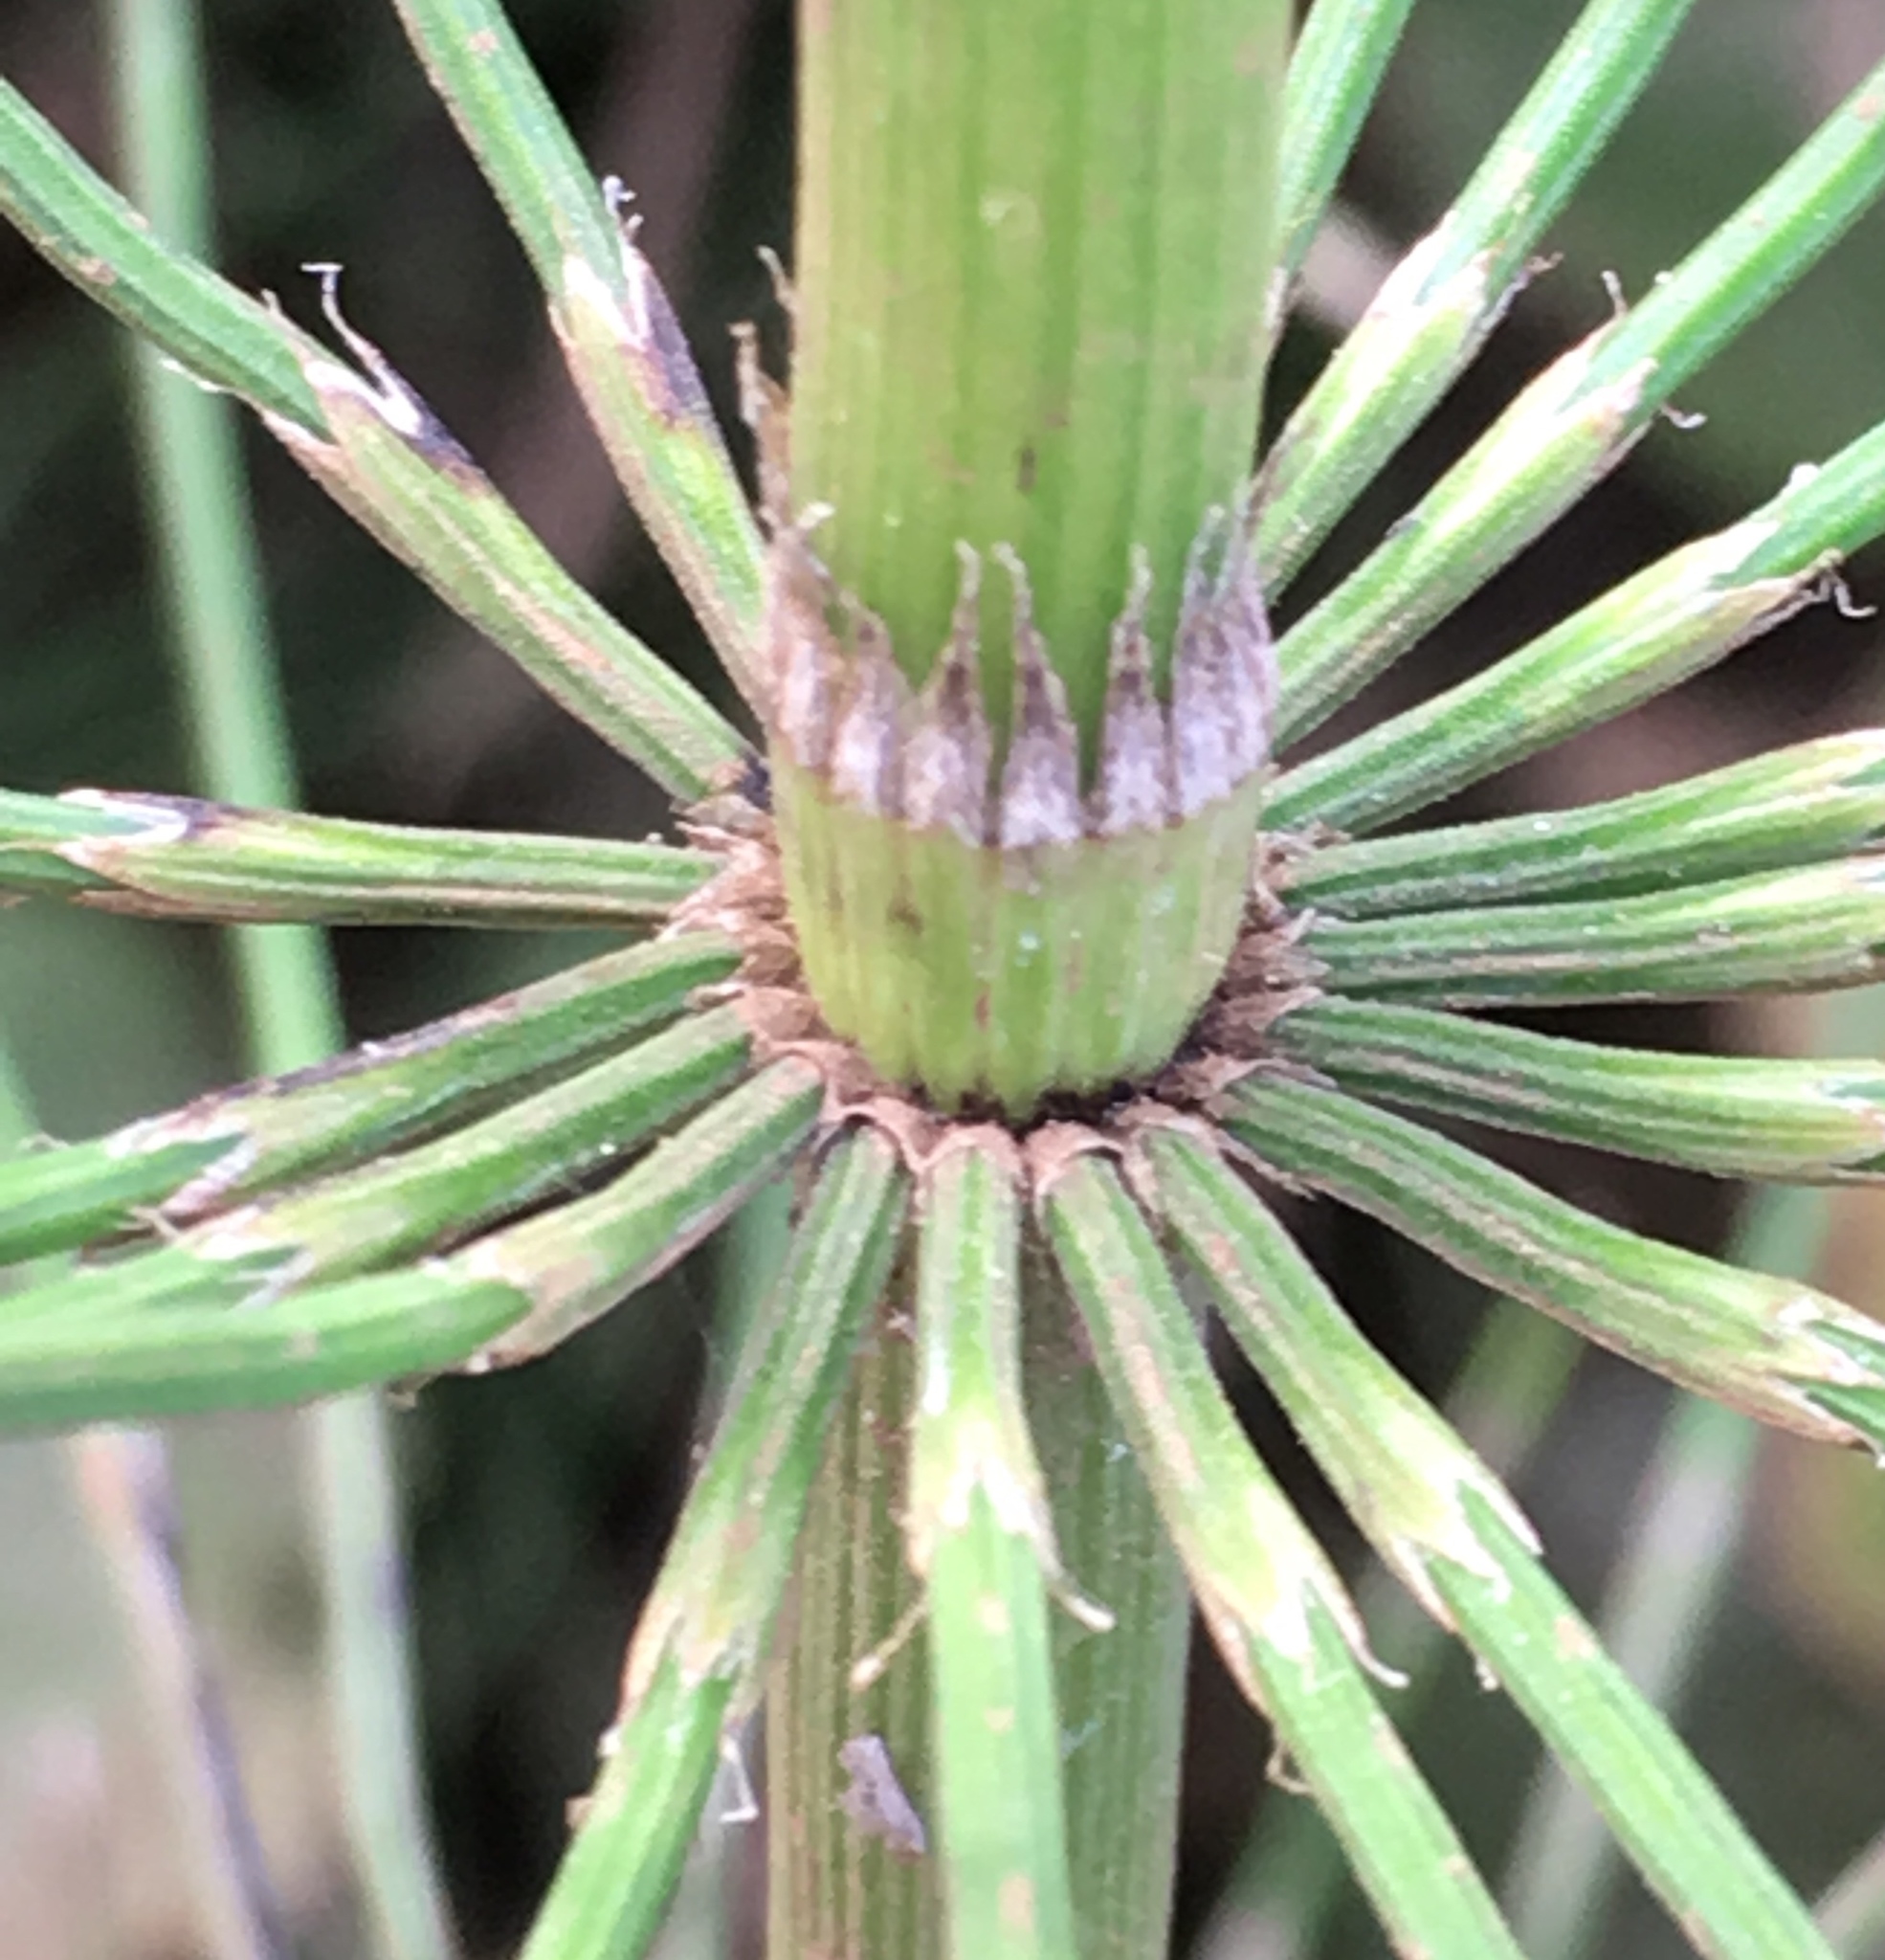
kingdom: Plantae
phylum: Tracheophyta
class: Polypodiopsida
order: Equisetales
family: Equisetaceae
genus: Equisetum
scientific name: Equisetum telmateia
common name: Great horsetail
